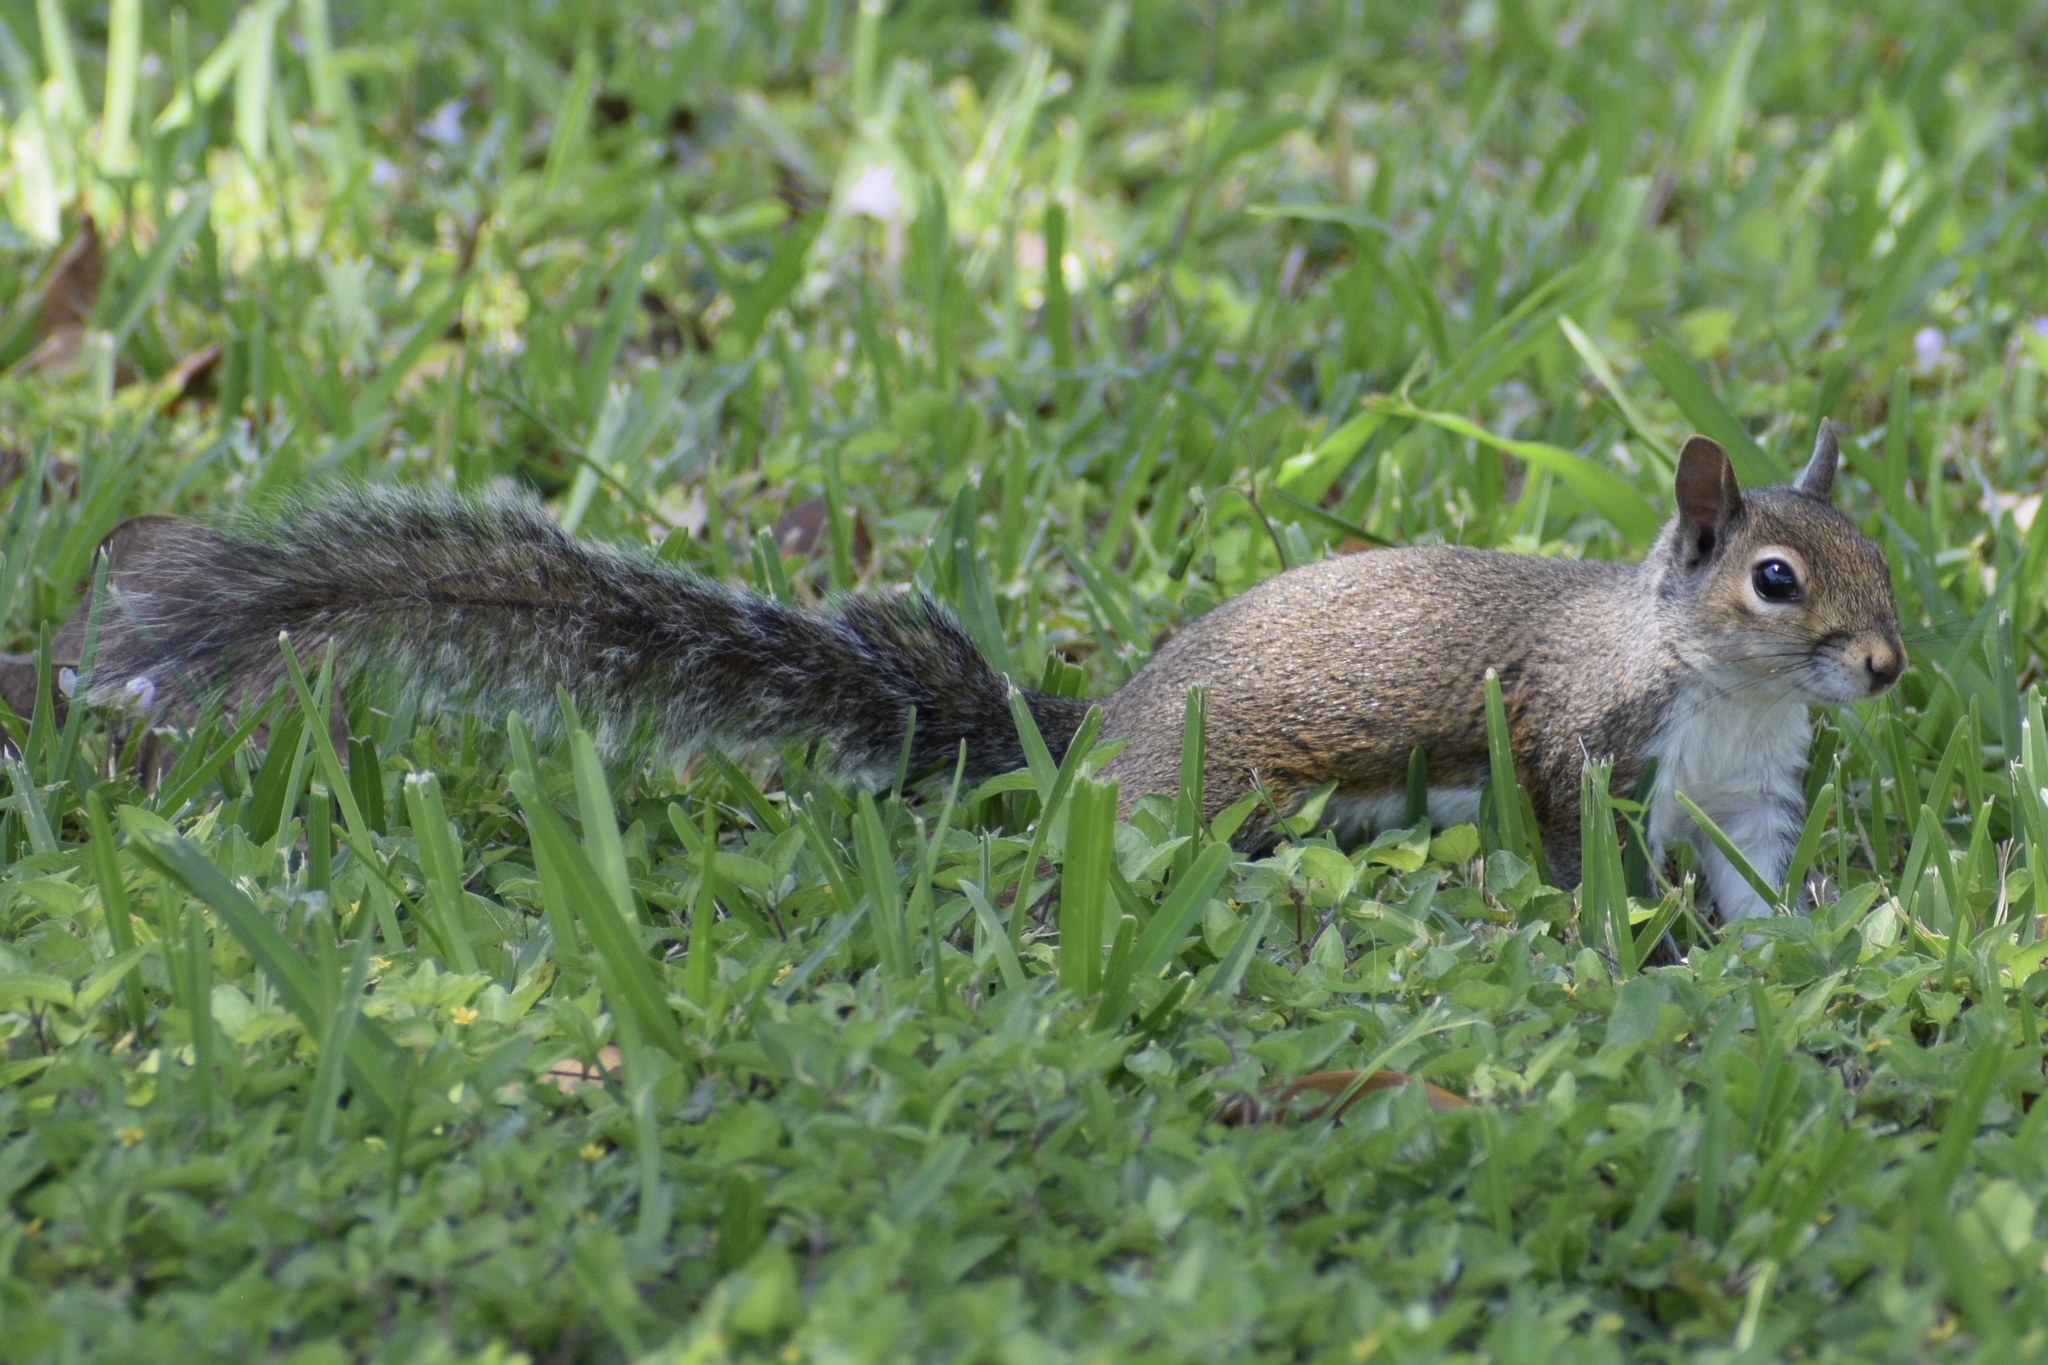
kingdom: Animalia
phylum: Chordata
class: Mammalia
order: Rodentia
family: Sciuridae
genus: Sciurus
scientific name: Sciurus carolinensis
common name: Eastern gray squirrel
